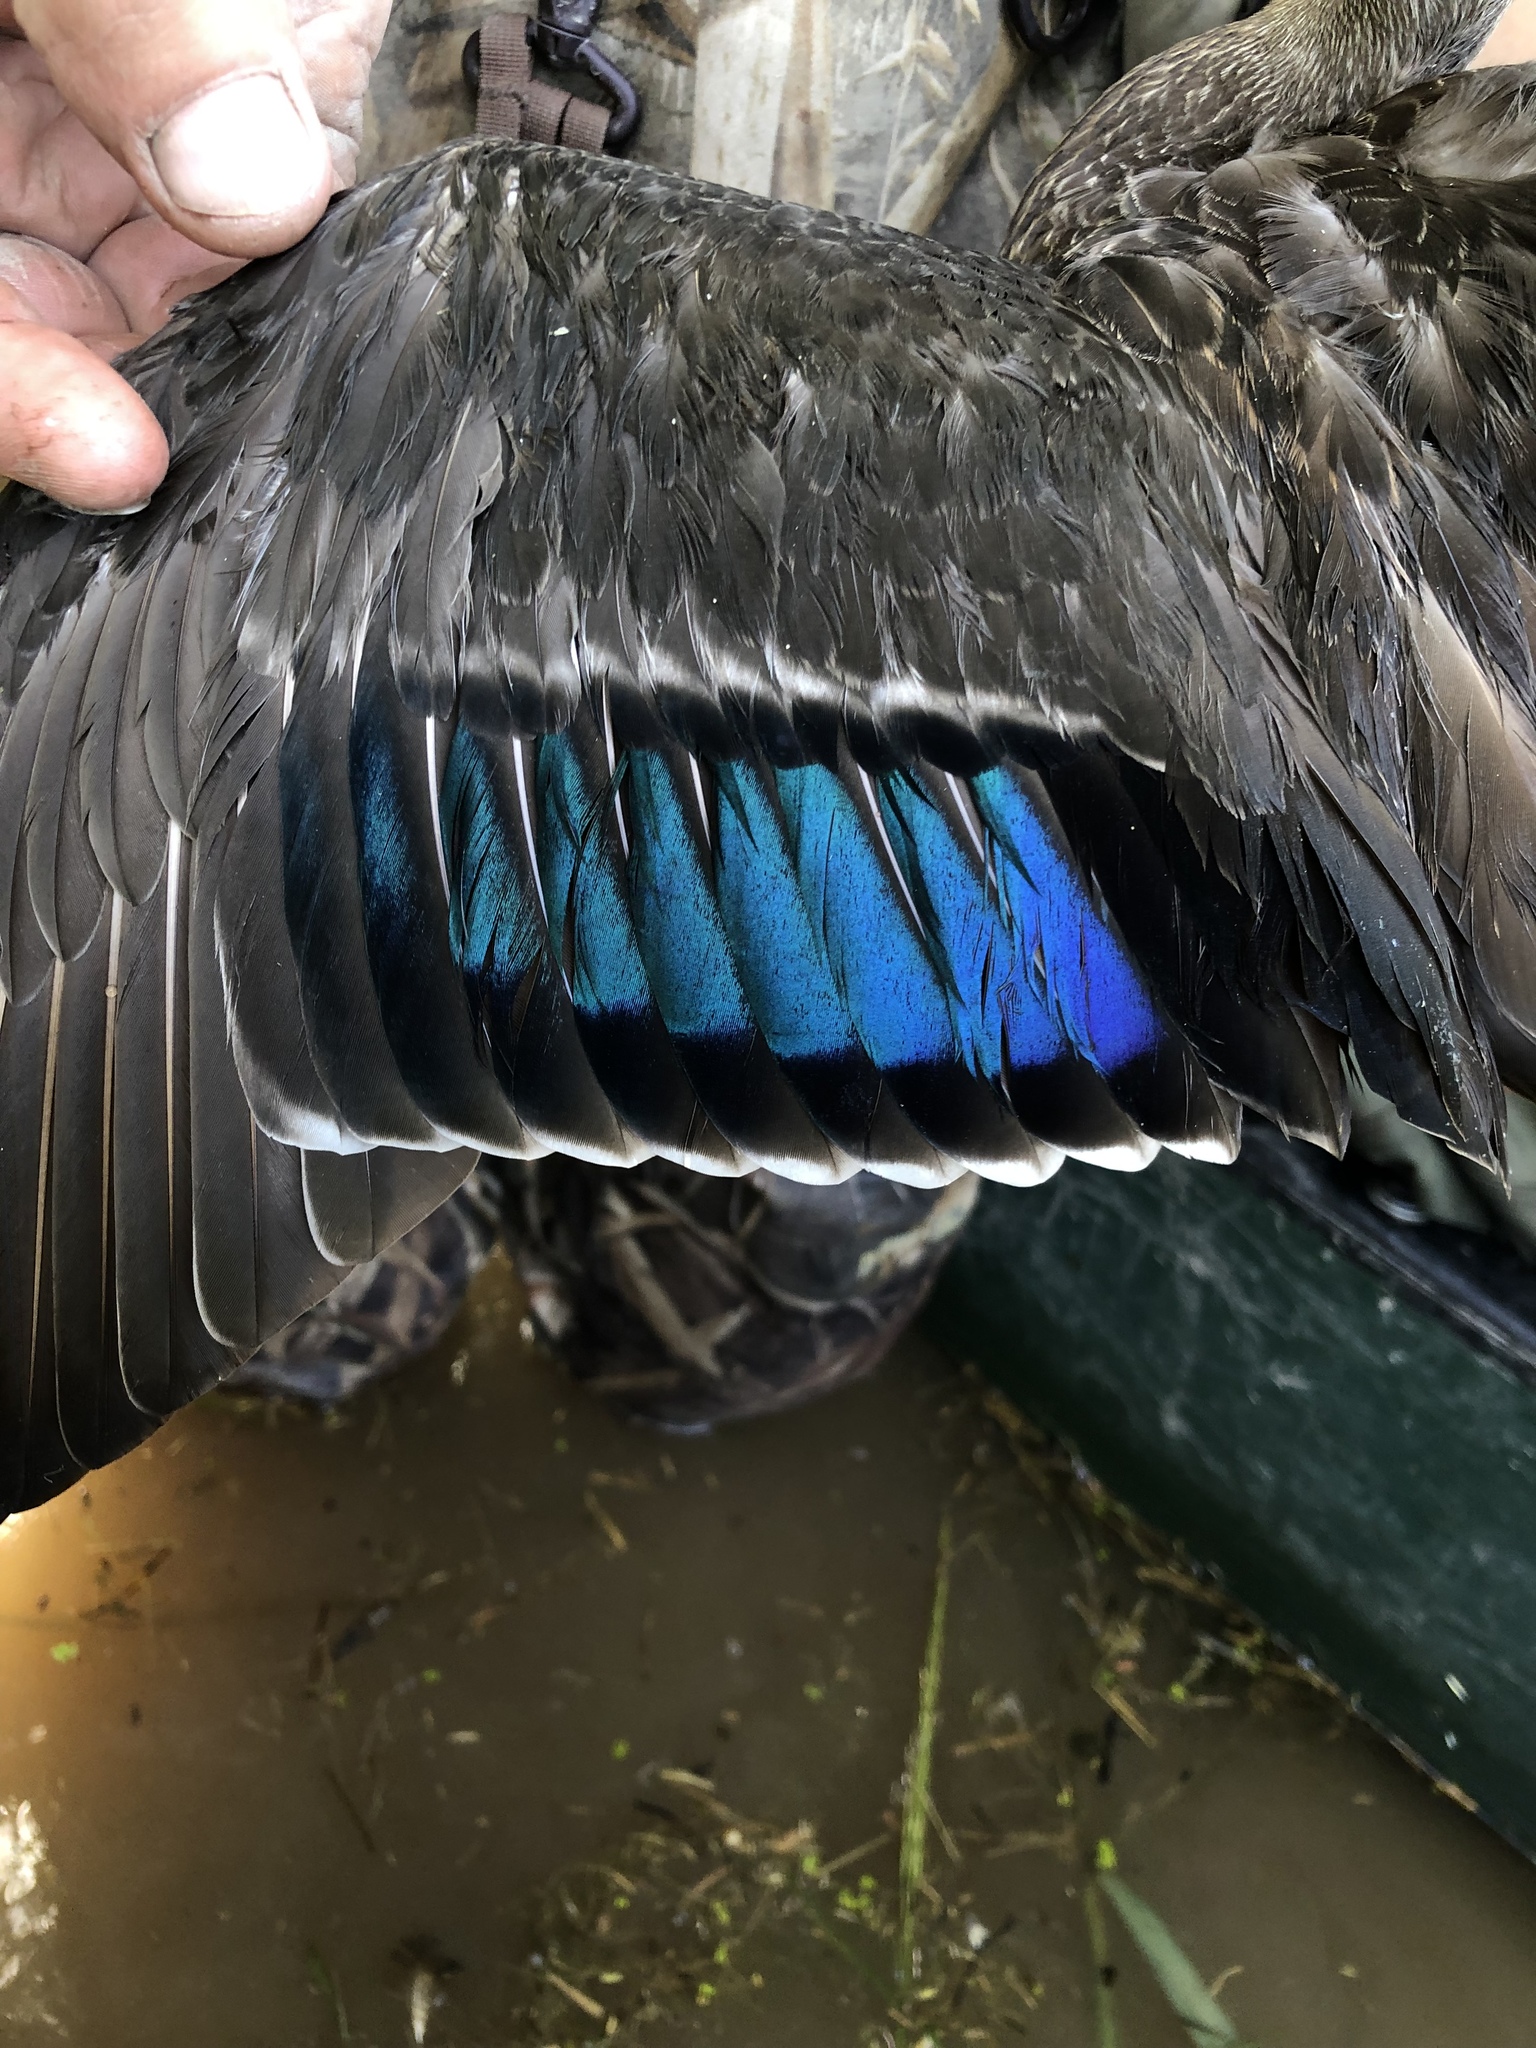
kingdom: Animalia
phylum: Chordata
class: Aves
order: Anseriformes
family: Anatidae
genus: Anas
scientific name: Anas
